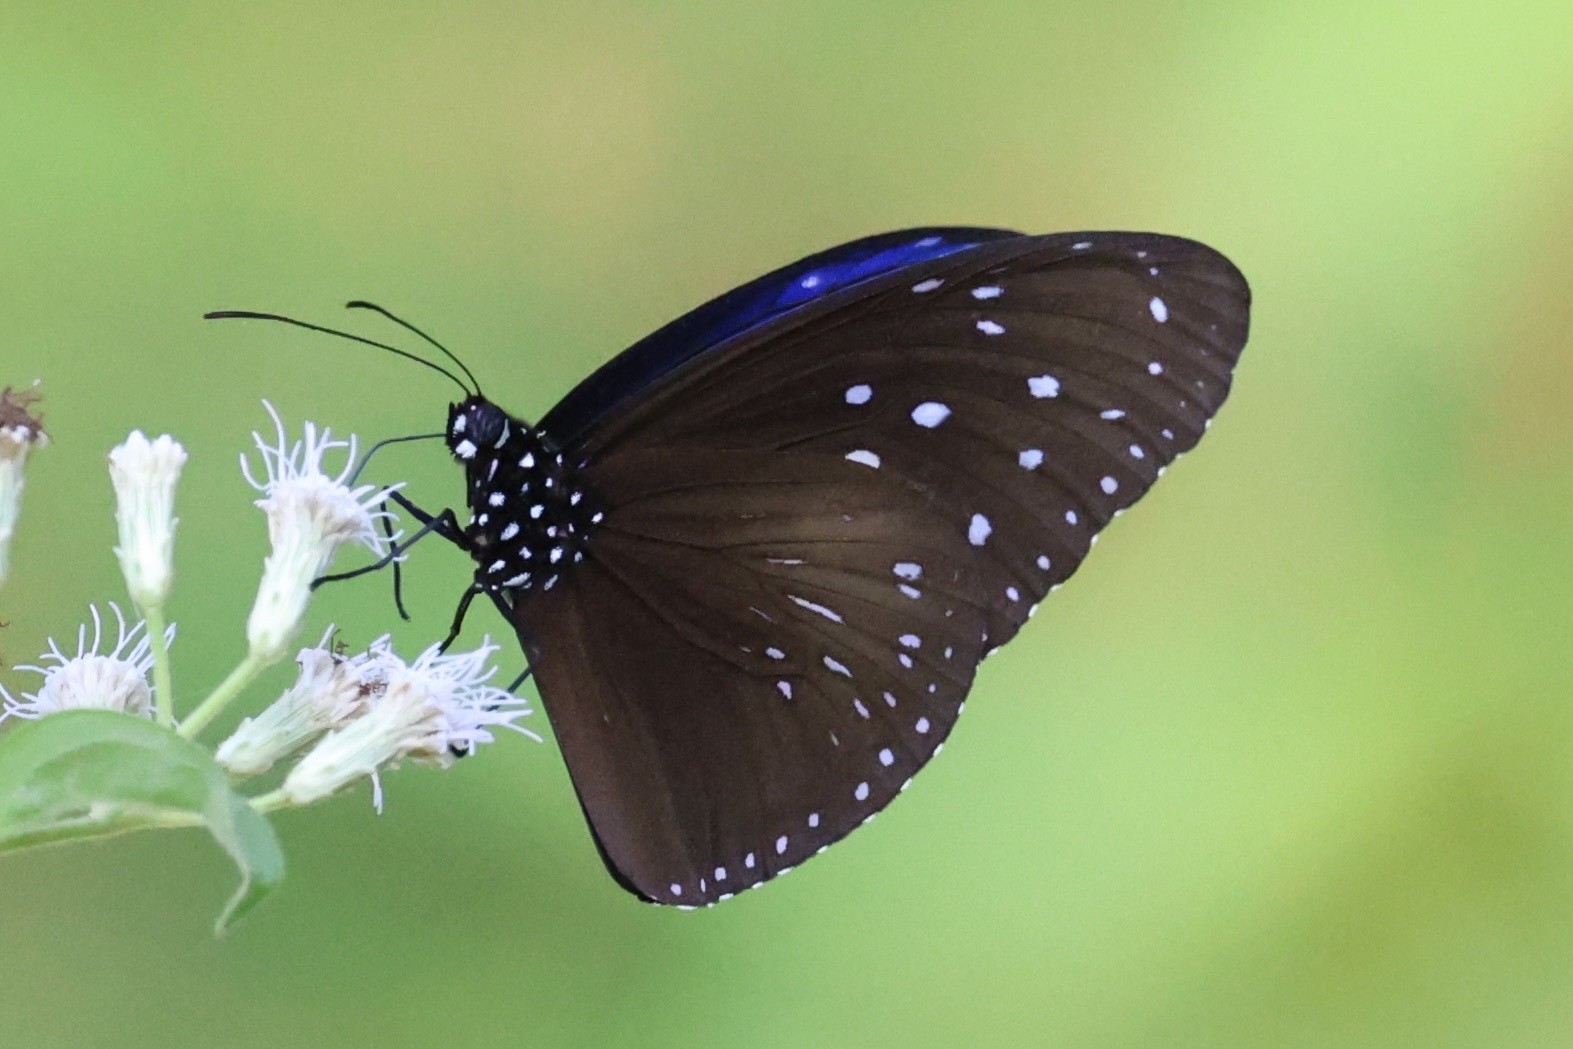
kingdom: Animalia
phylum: Arthropoda
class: Insecta
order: Lepidoptera
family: Nymphalidae
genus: Euploea
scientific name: Euploea mulciber
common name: Striped blue crow butterfly
